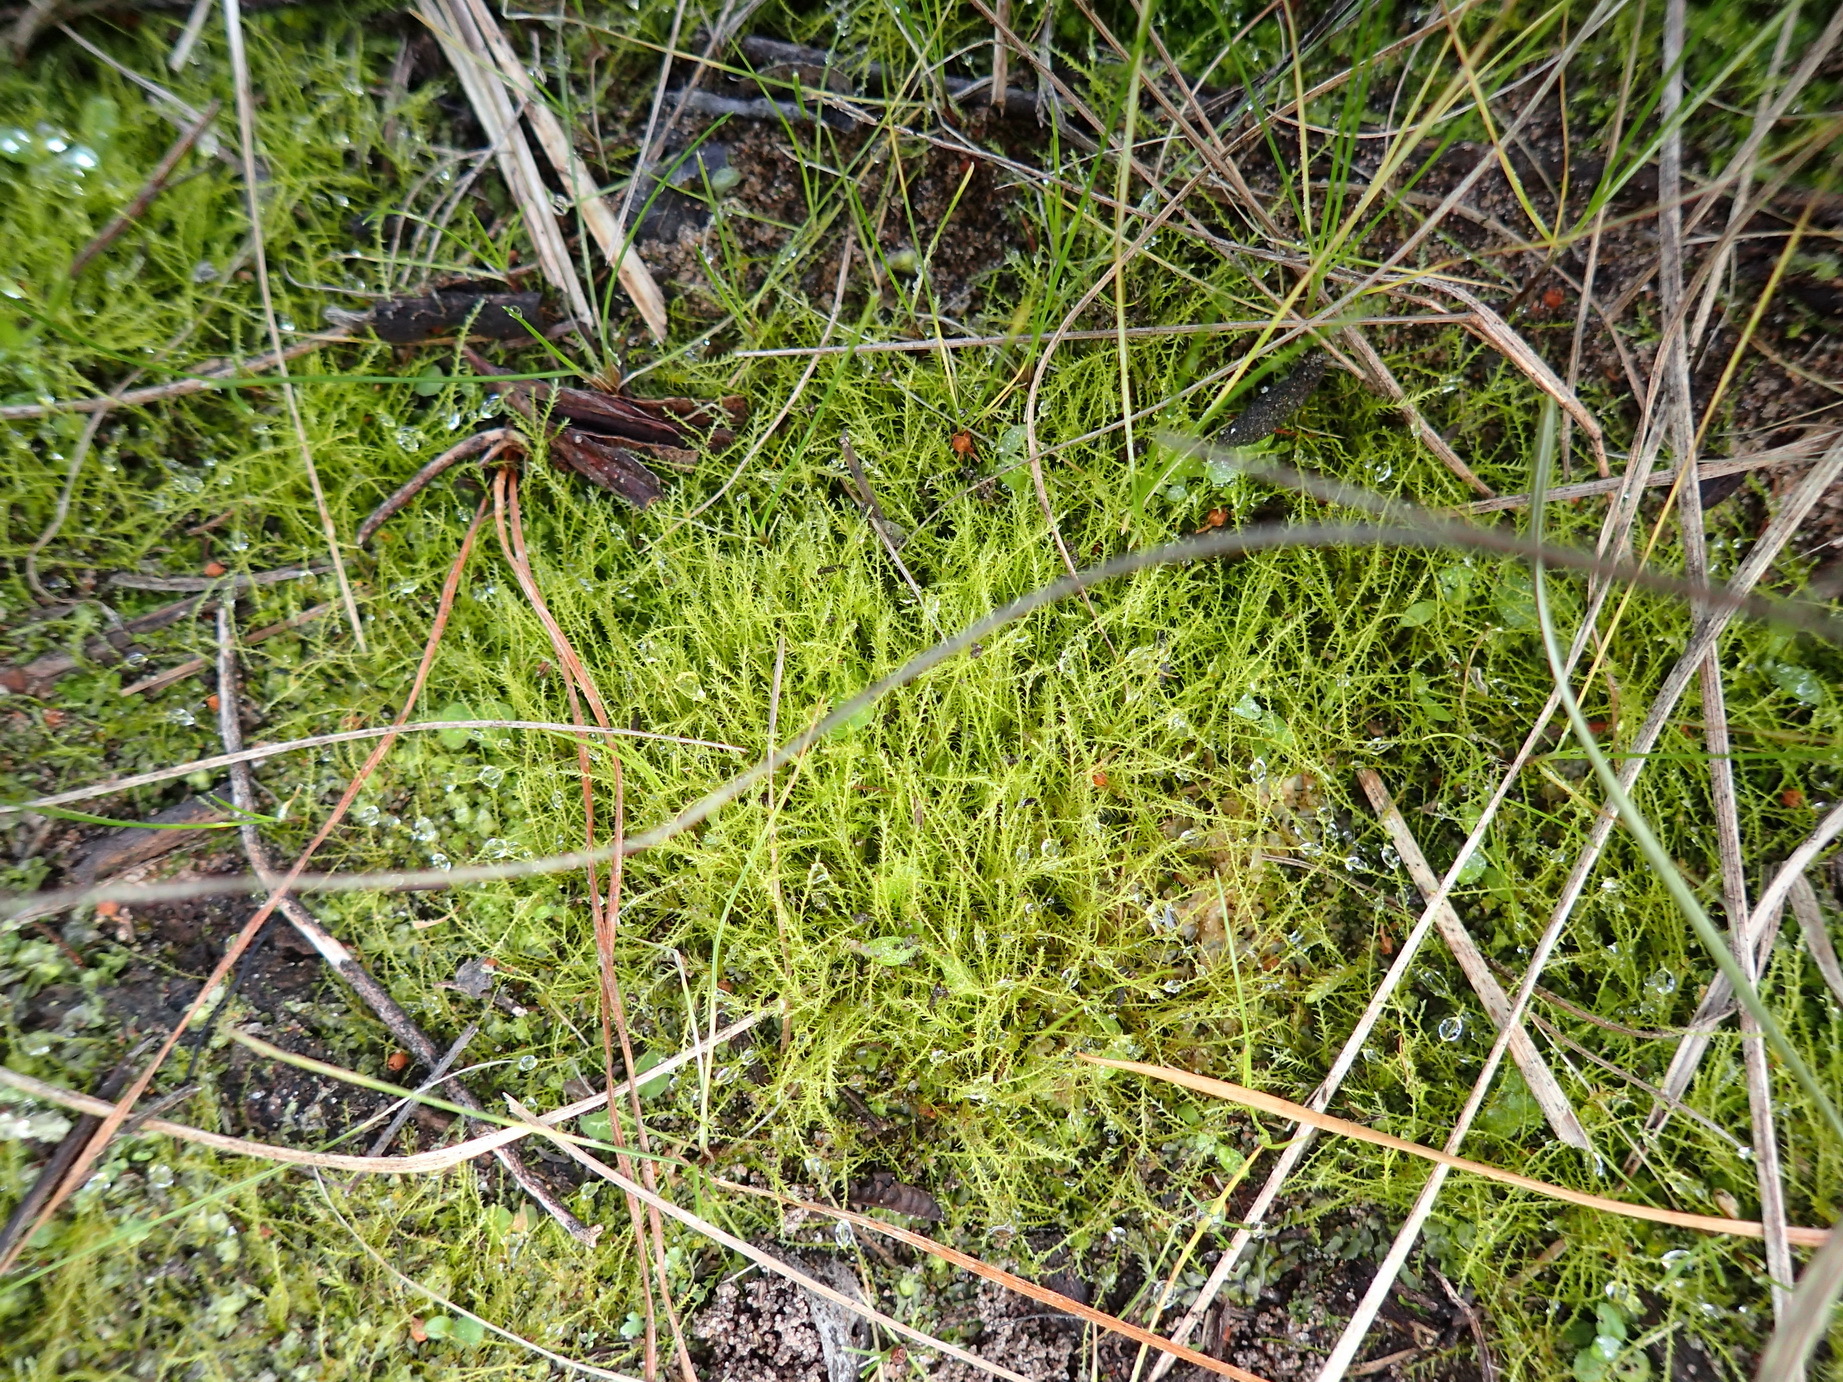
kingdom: Plantae
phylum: Bryophyta
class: Bryopsida
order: Dicranales
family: Ditrichaceae
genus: Pleuridium
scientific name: Pleuridium ecklonii
